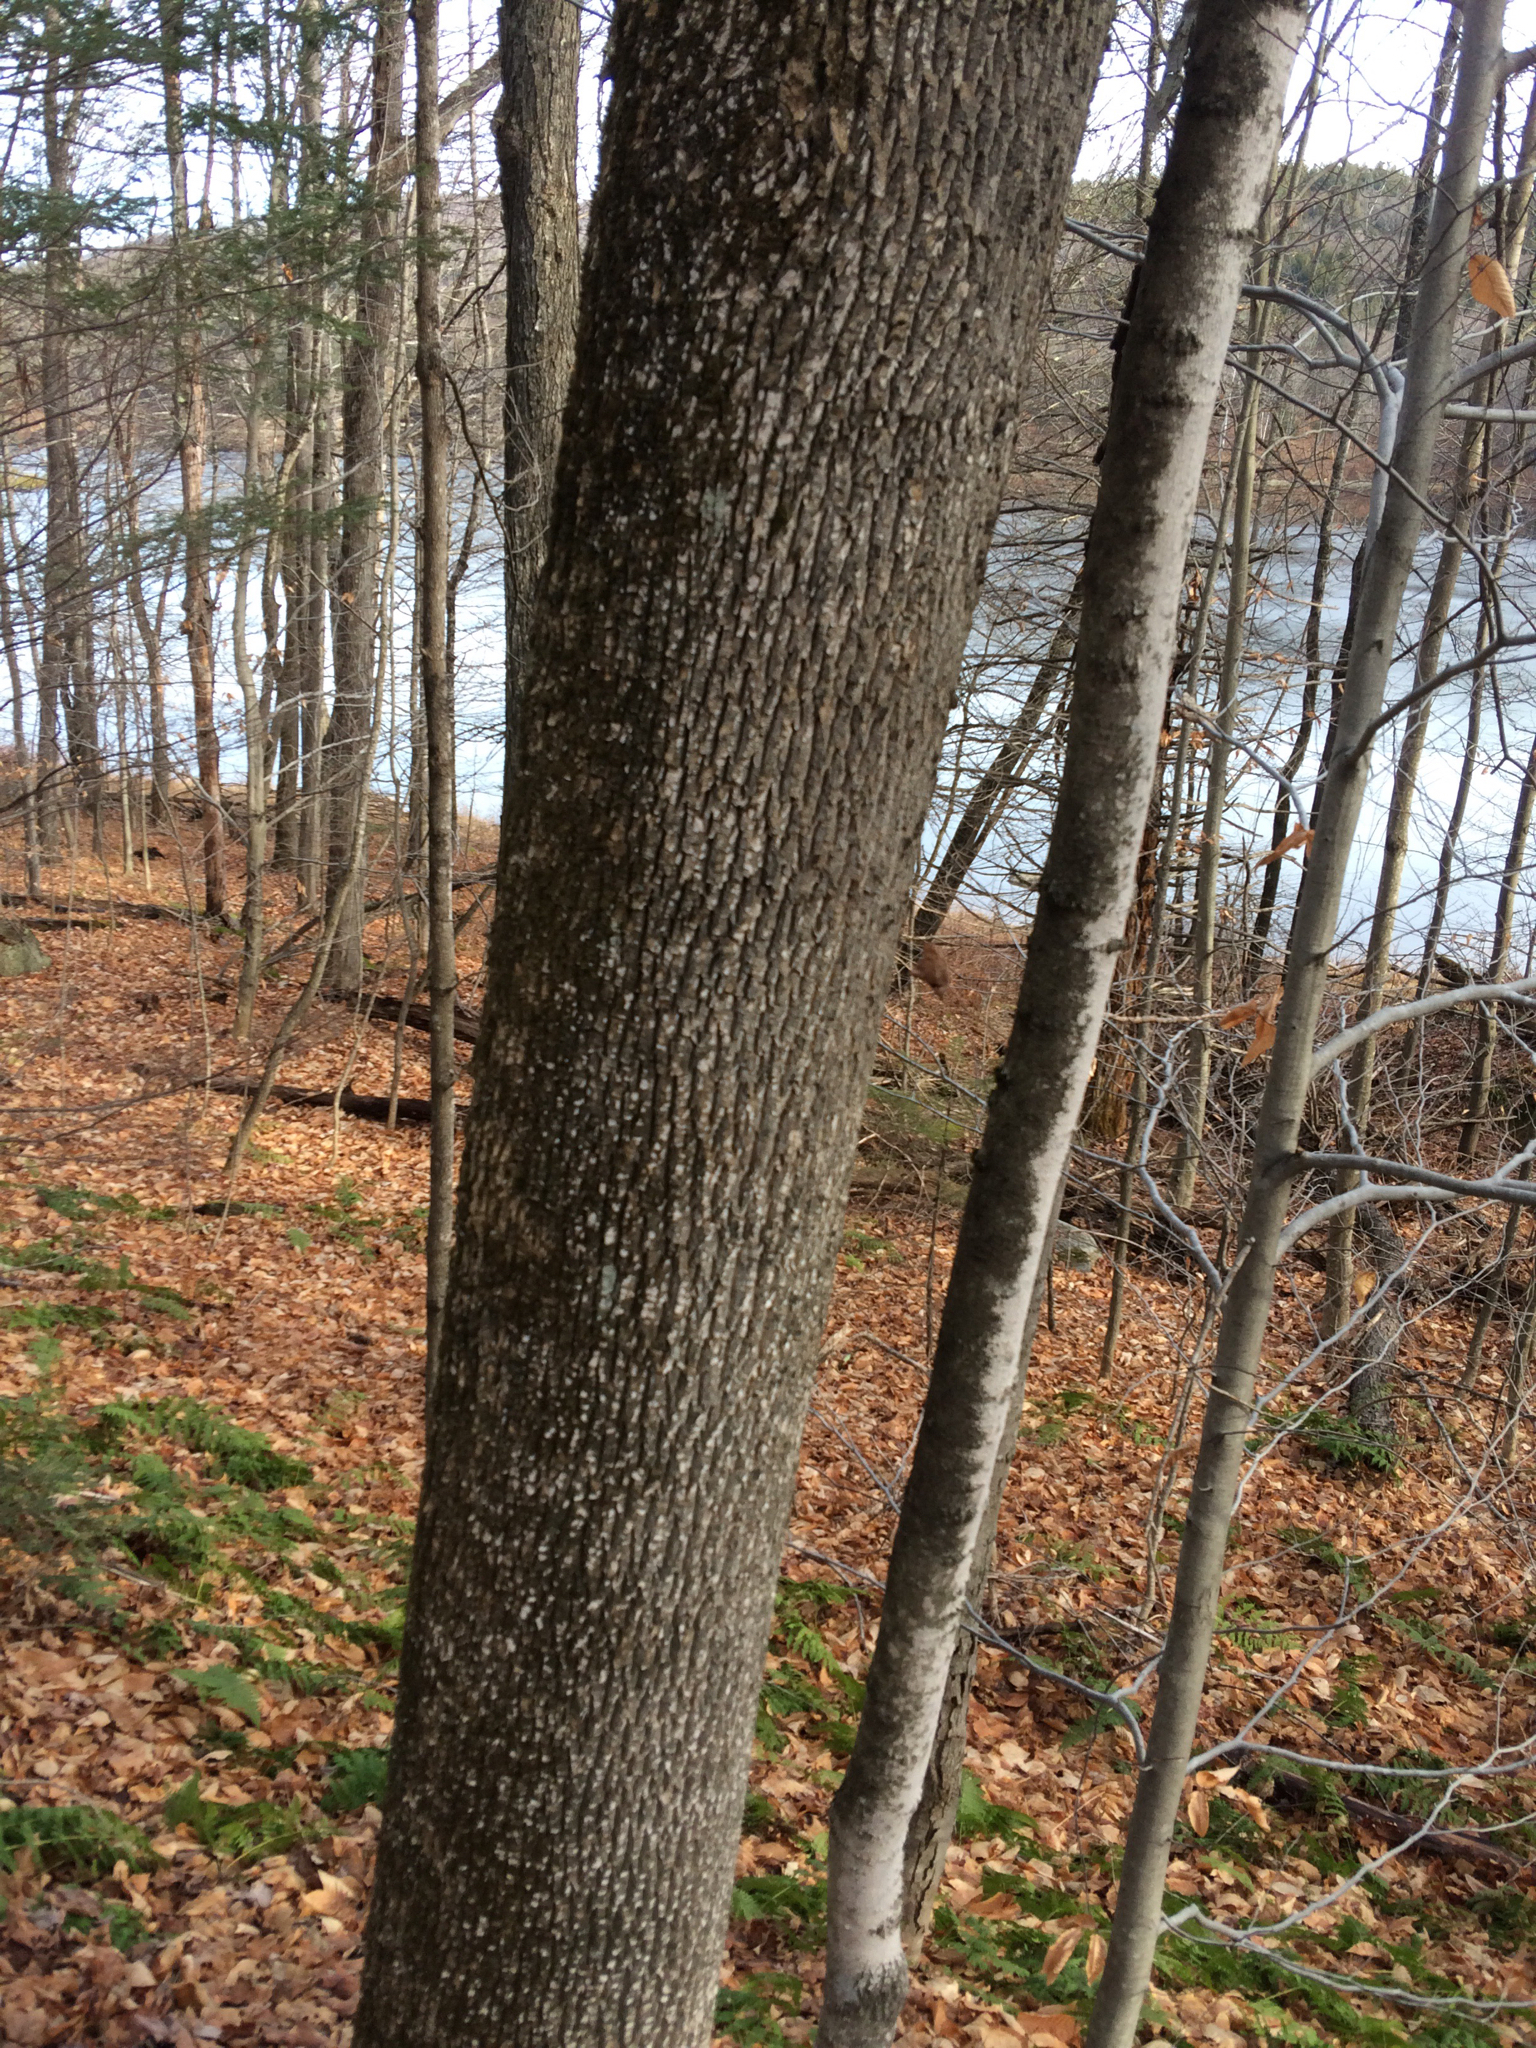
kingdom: Plantae
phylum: Tracheophyta
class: Magnoliopsida
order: Lamiales
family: Oleaceae
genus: Fraxinus
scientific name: Fraxinus americana
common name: White ash
